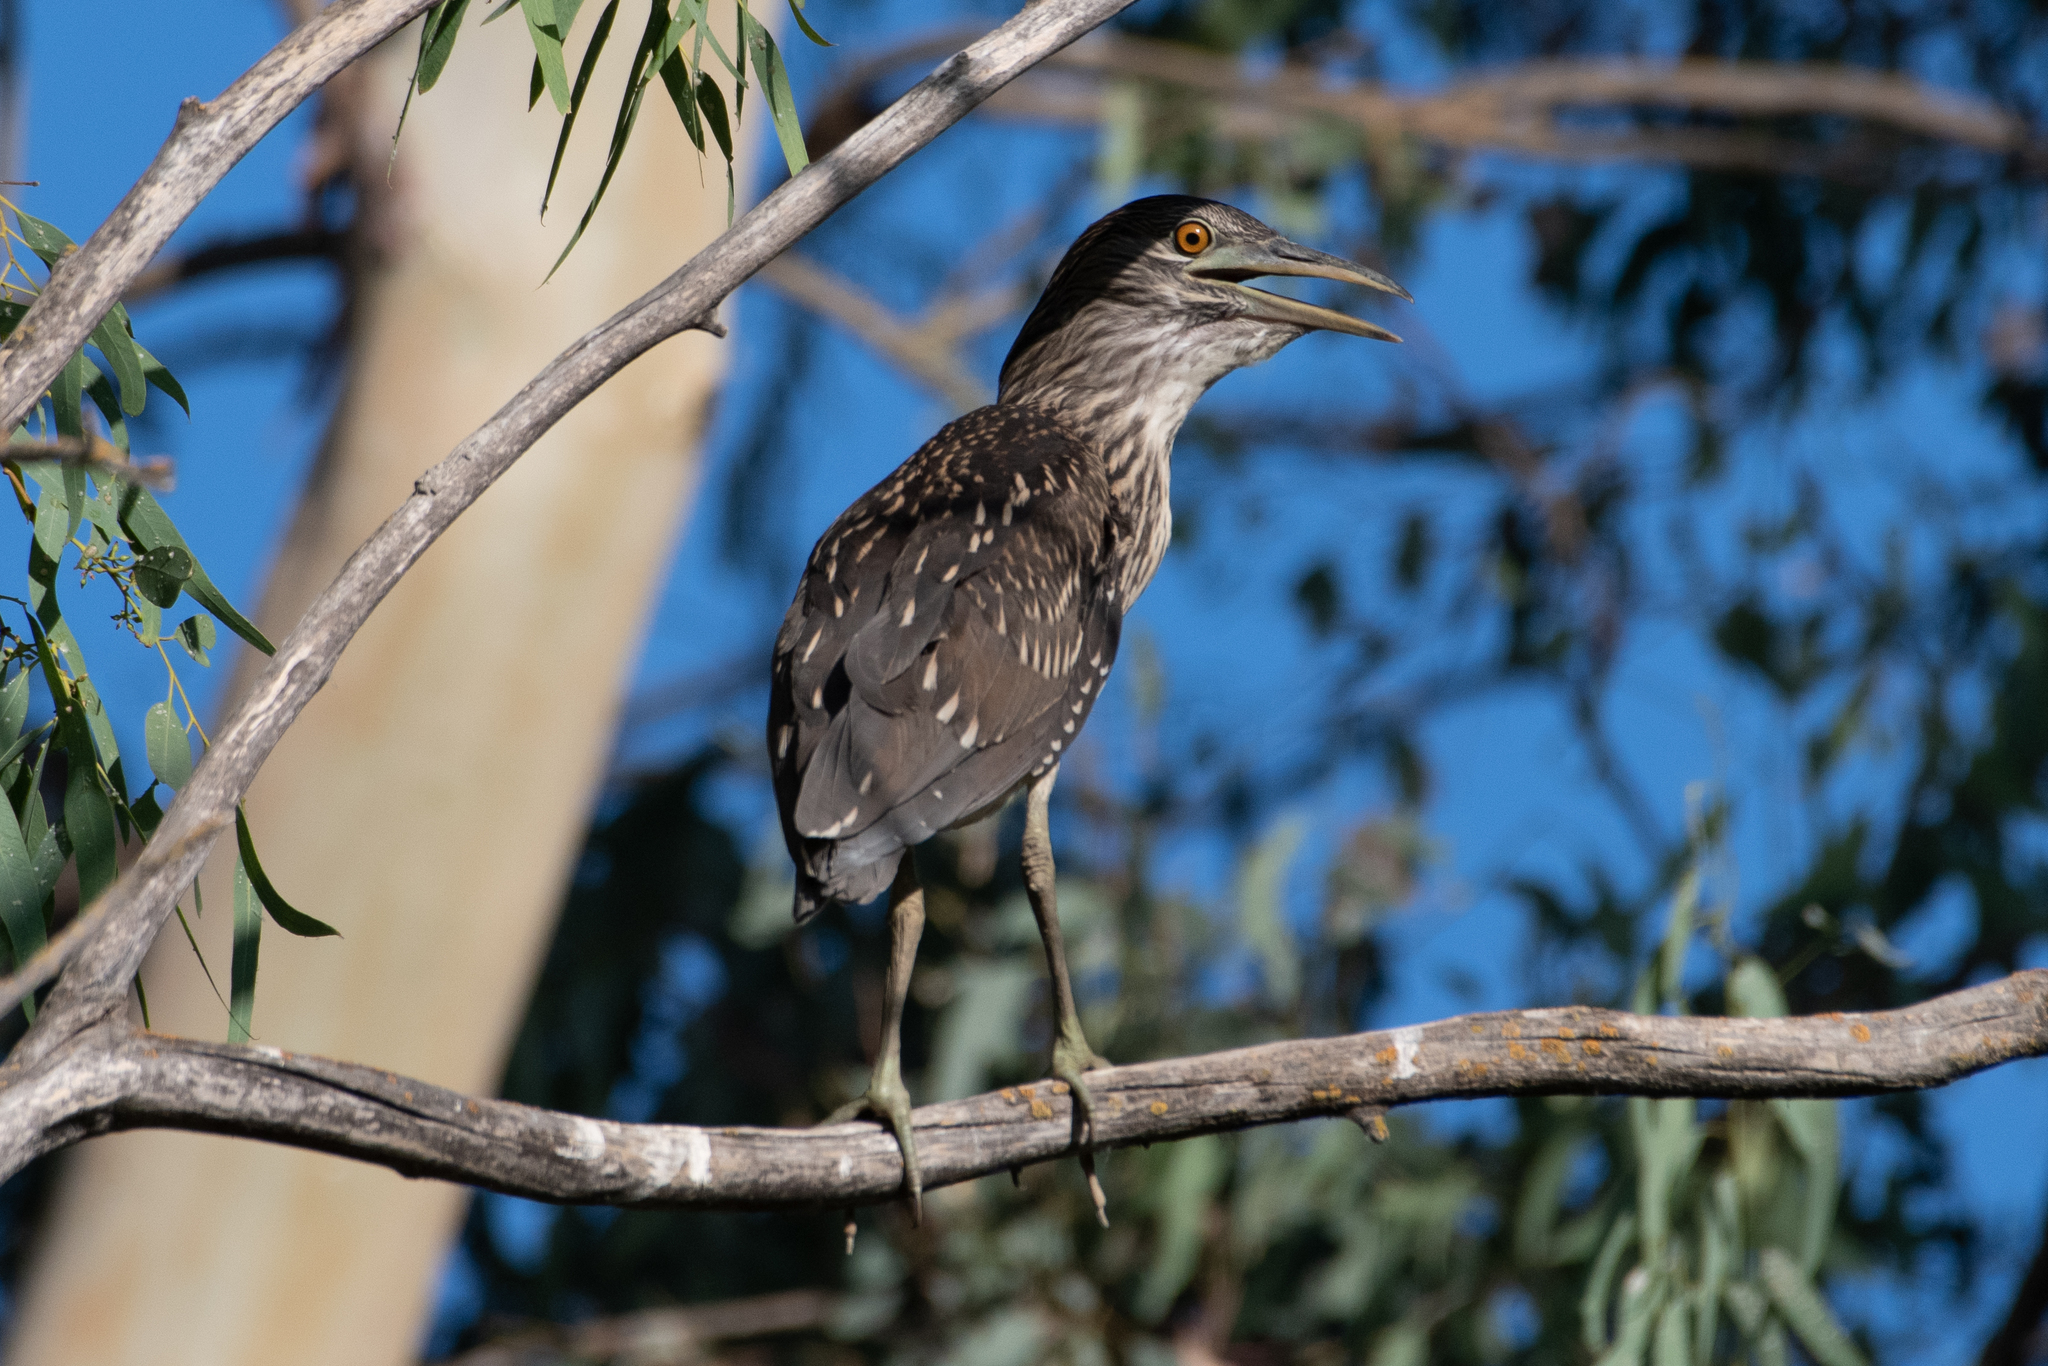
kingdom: Animalia
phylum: Chordata
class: Aves
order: Pelecaniformes
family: Ardeidae
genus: Nycticorax
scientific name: Nycticorax nycticorax
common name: Black-crowned night heron
